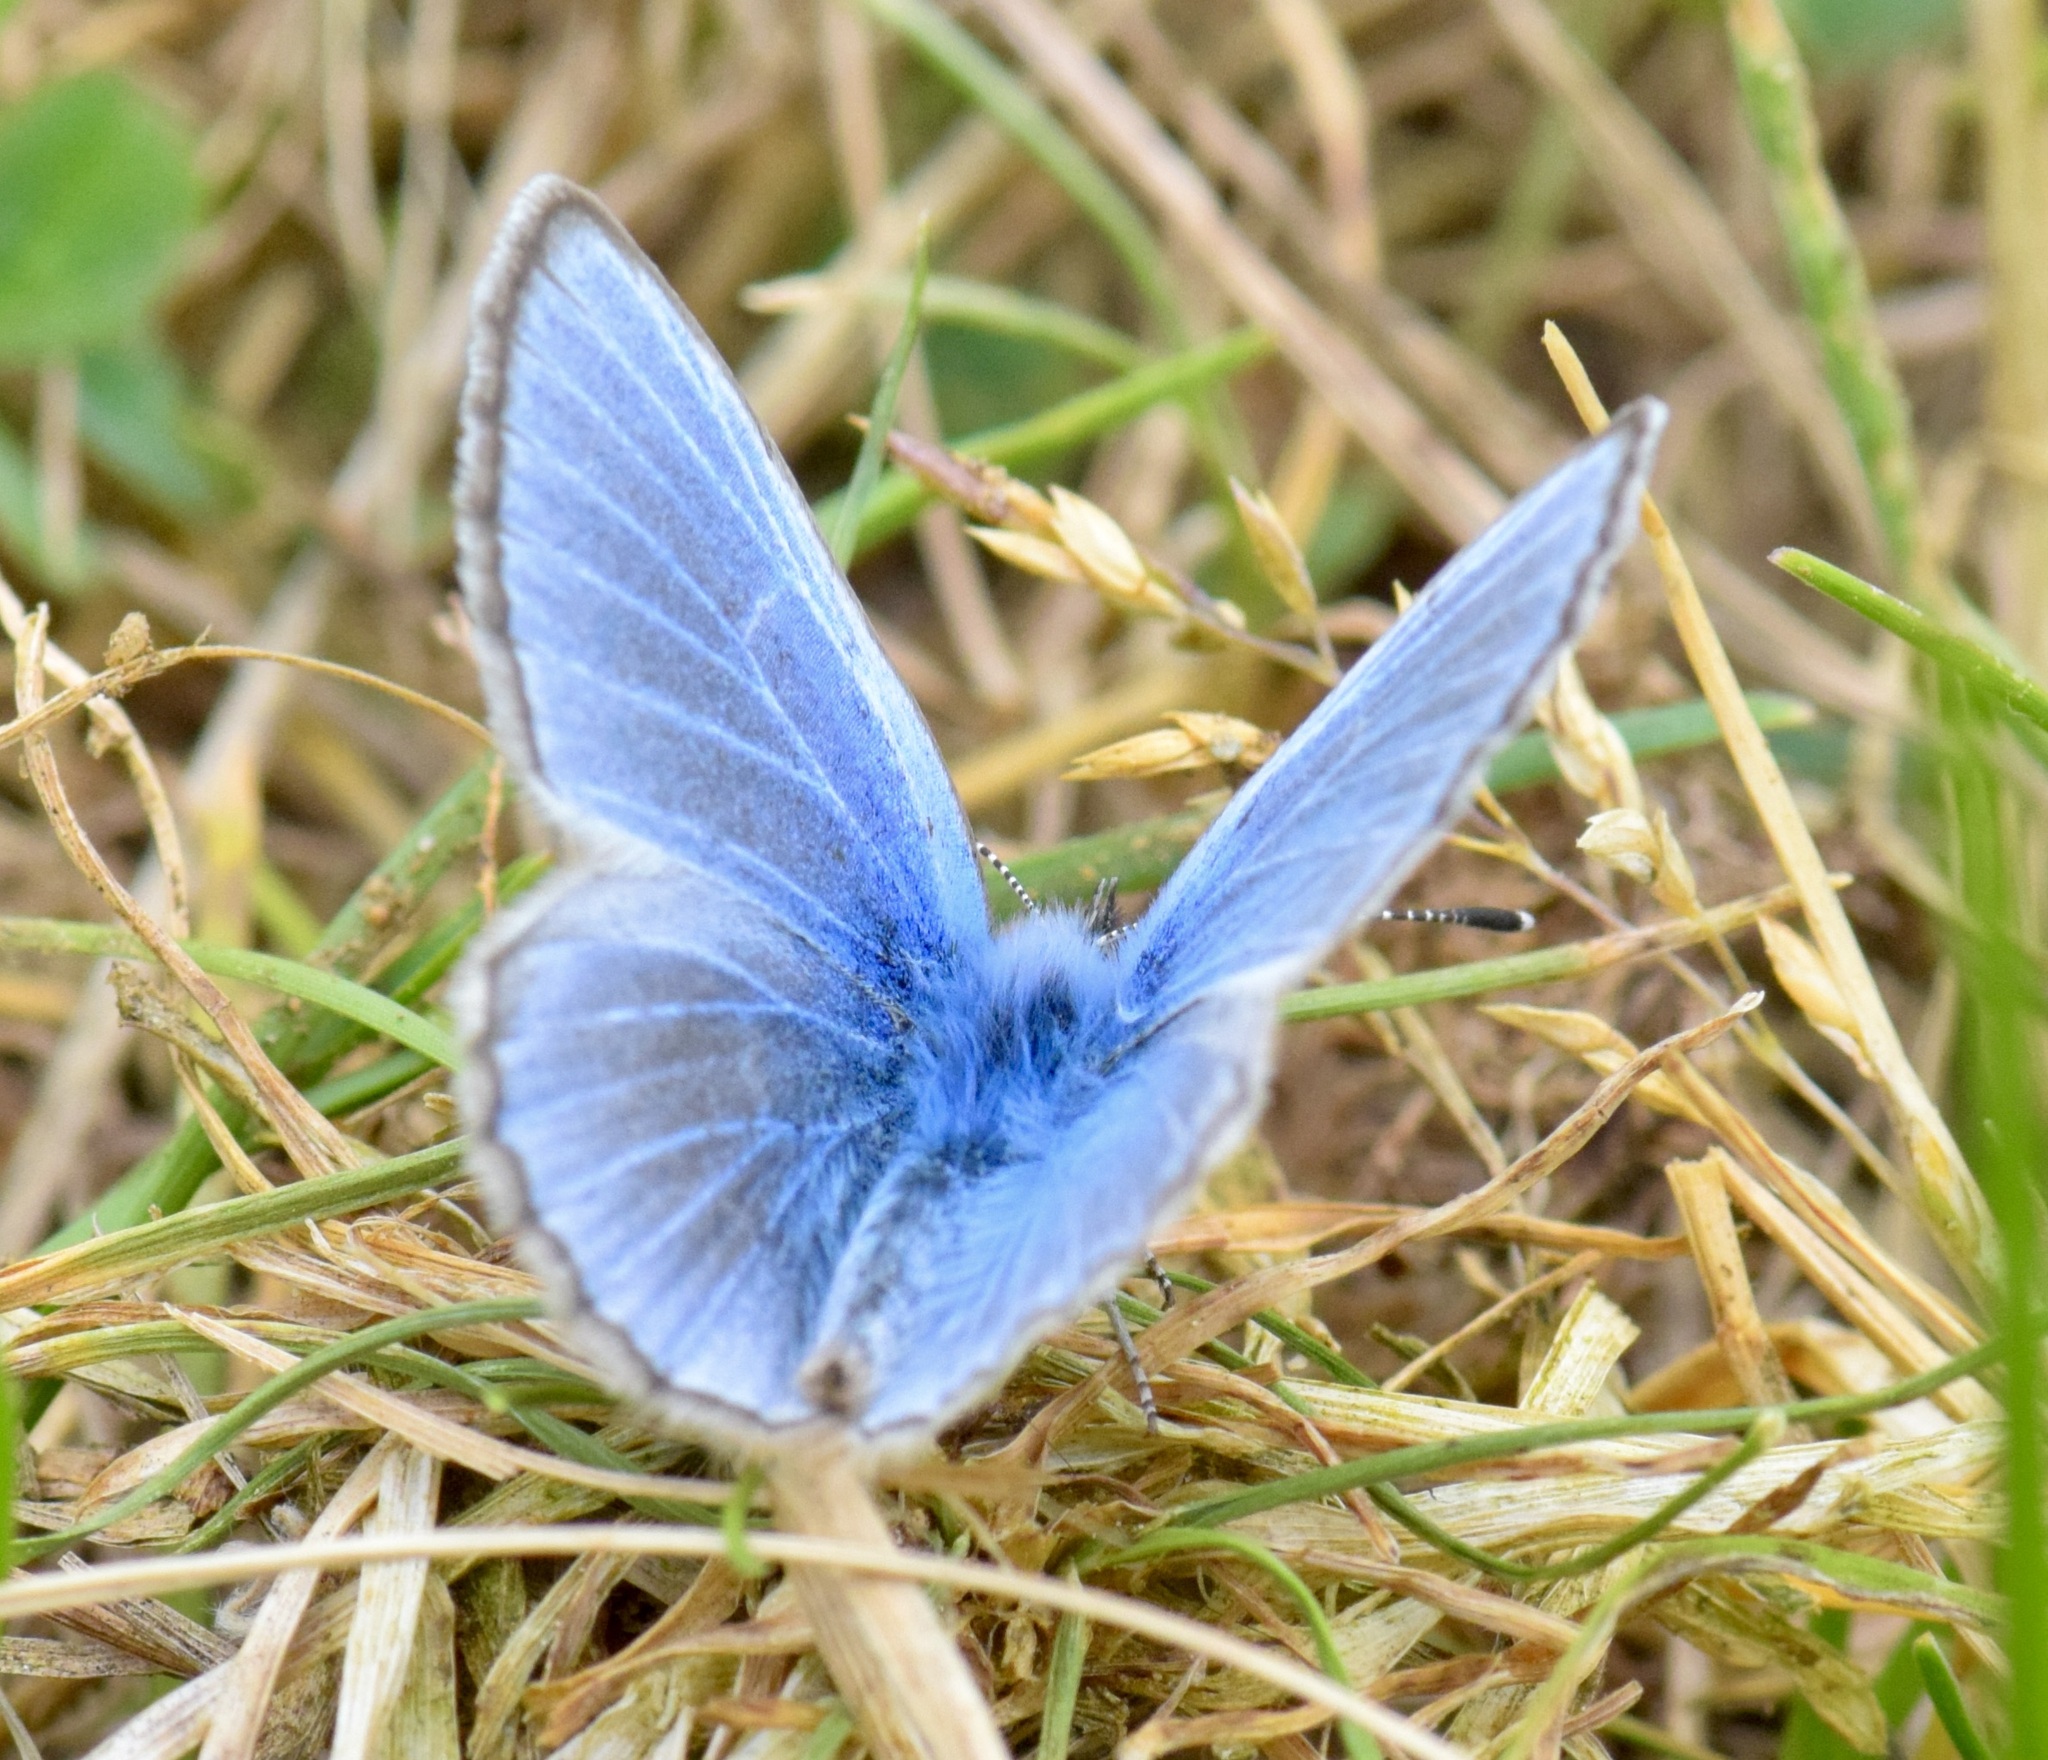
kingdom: Animalia
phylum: Arthropoda
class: Insecta
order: Lepidoptera
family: Lycaenidae
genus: Glaucopsyche
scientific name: Glaucopsyche lygdamus
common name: Silvery blue
